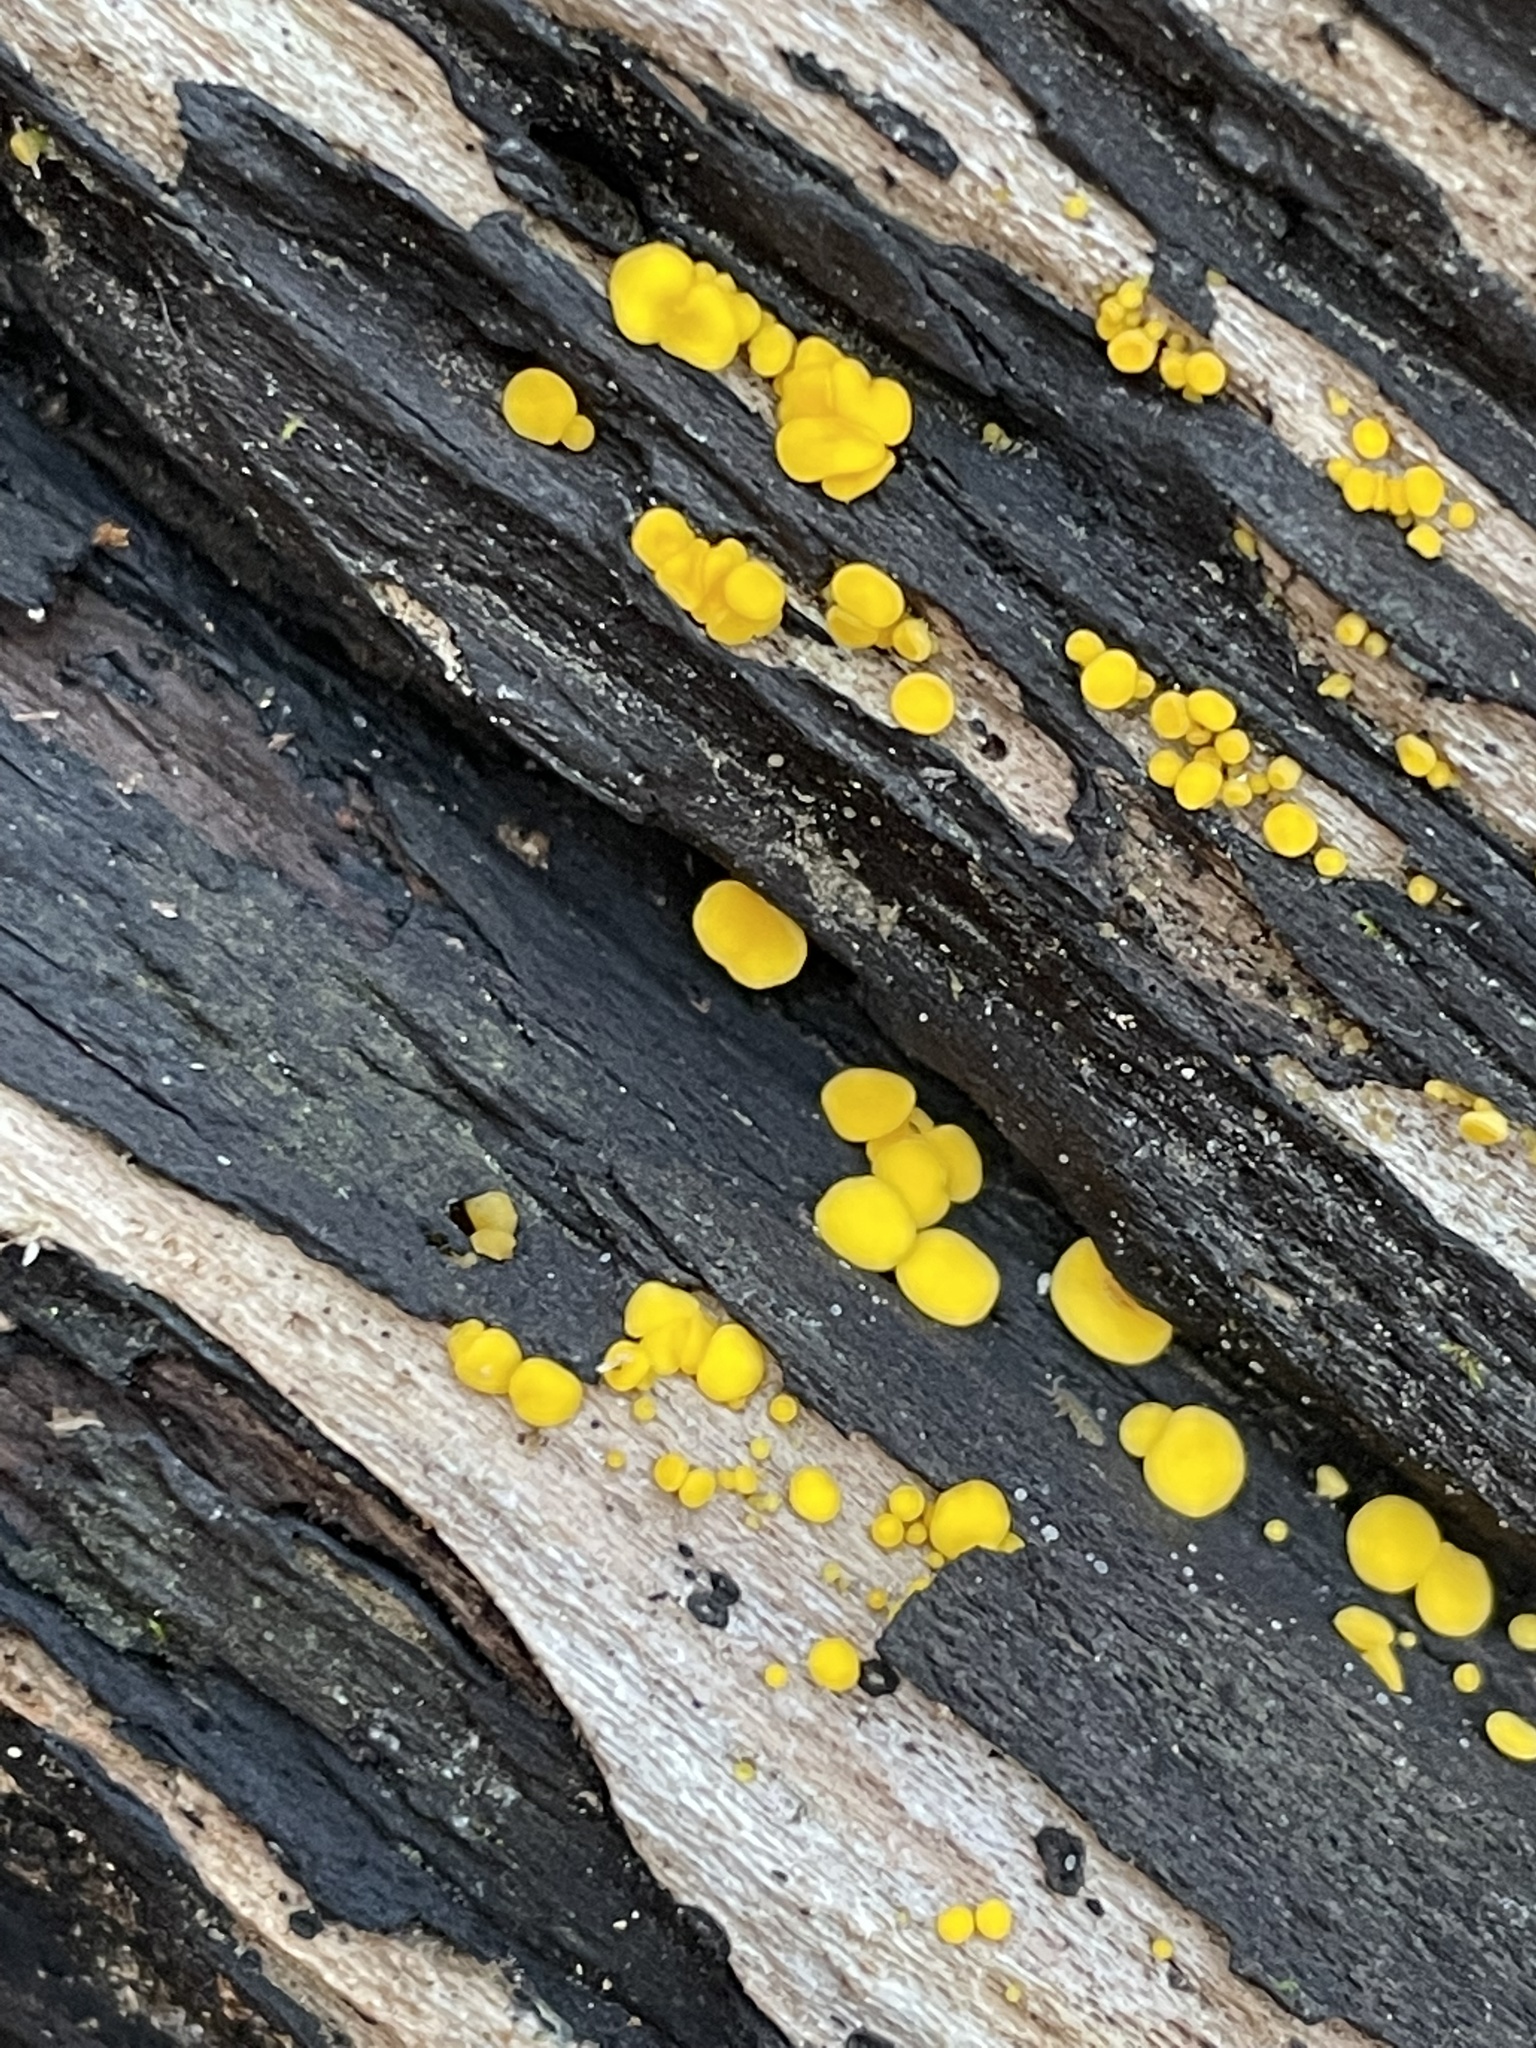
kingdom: Fungi
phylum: Ascomycota
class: Leotiomycetes
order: Helotiales
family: Pezizellaceae
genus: Calycina
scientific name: Calycina citrina
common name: Yellow fairy cups
